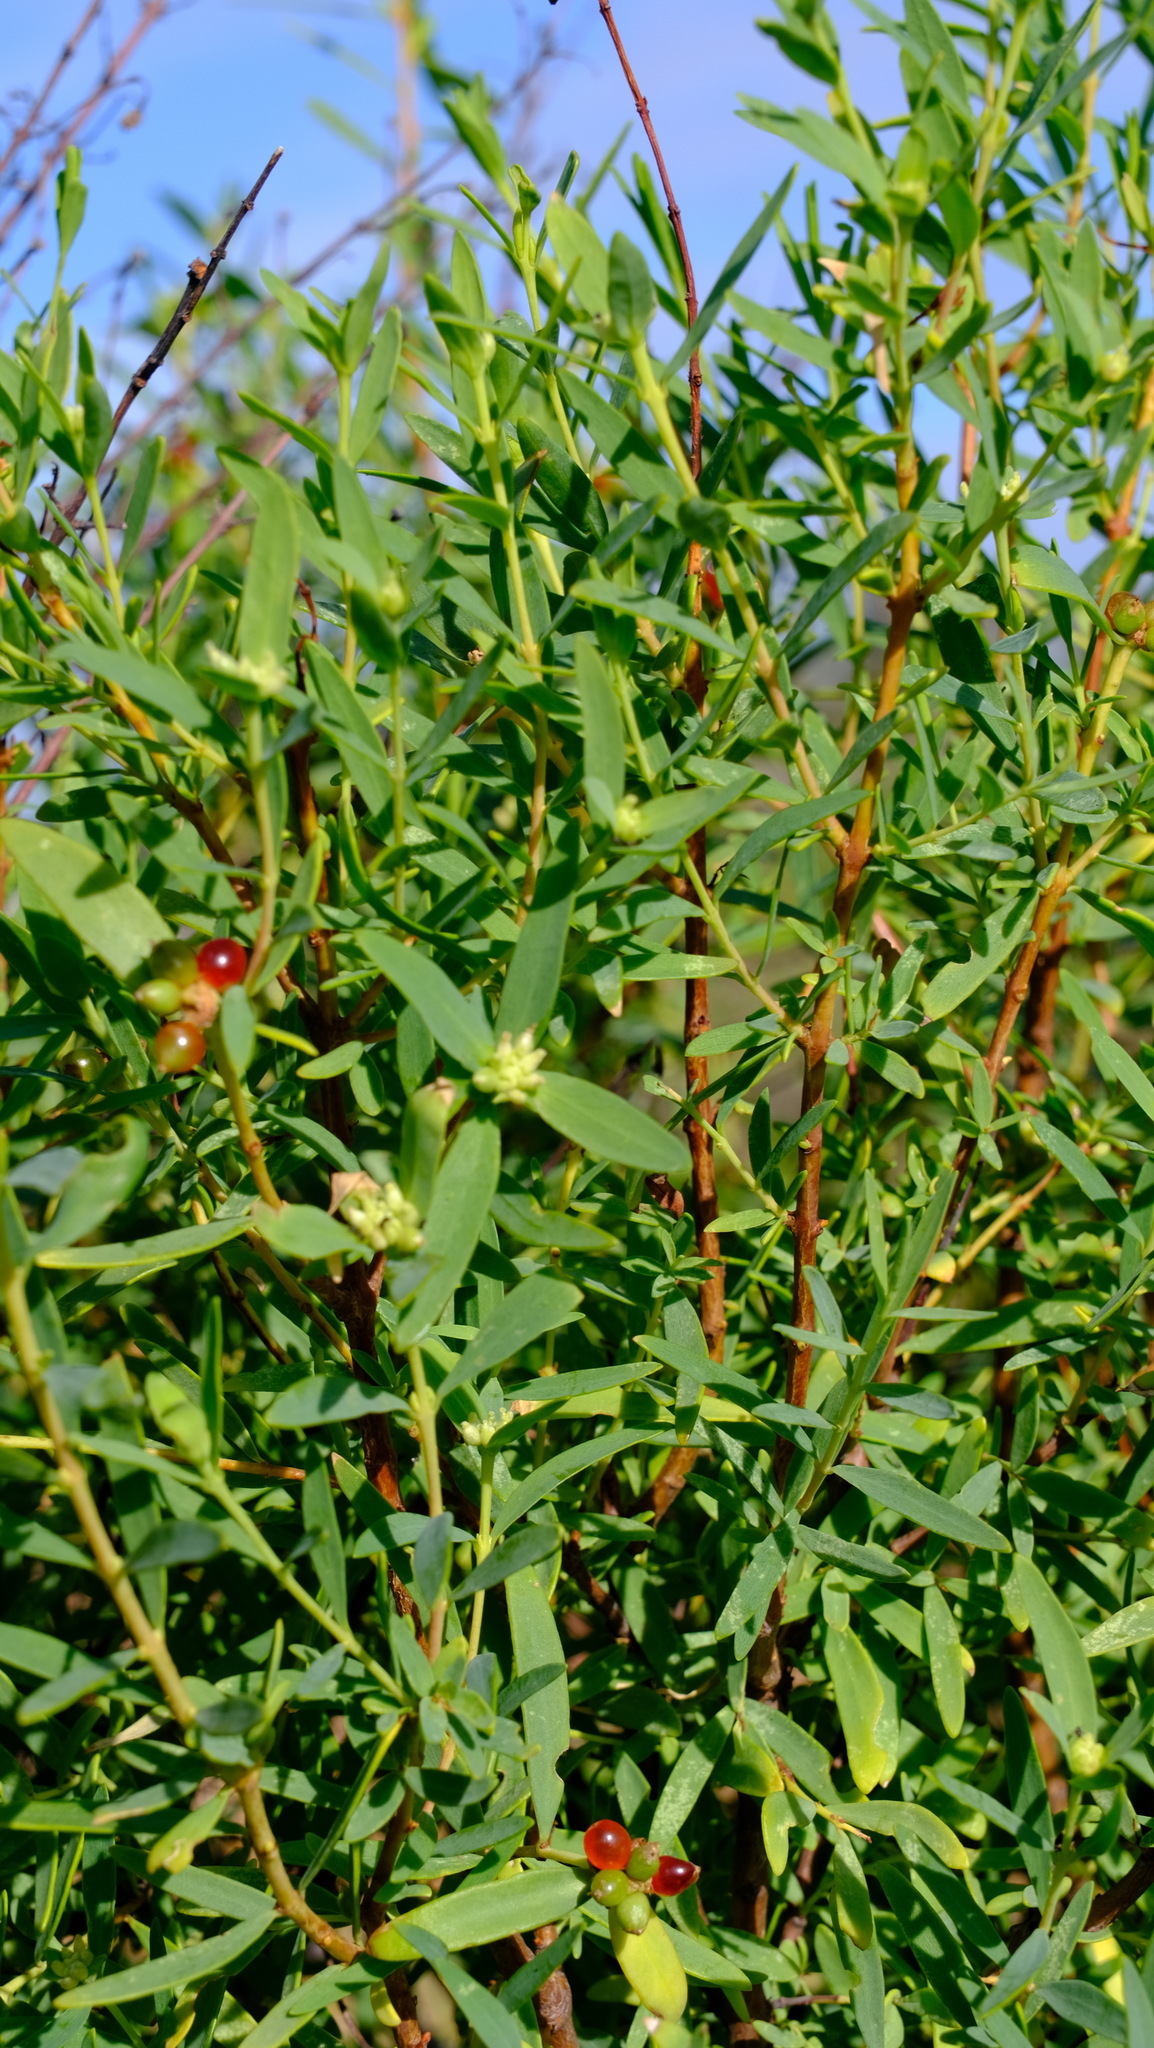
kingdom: Plantae
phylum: Tracheophyta
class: Magnoliopsida
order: Malvales
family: Thymelaeaceae
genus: Pimelea
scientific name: Pimelea microcephala
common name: Mallee riceflower
